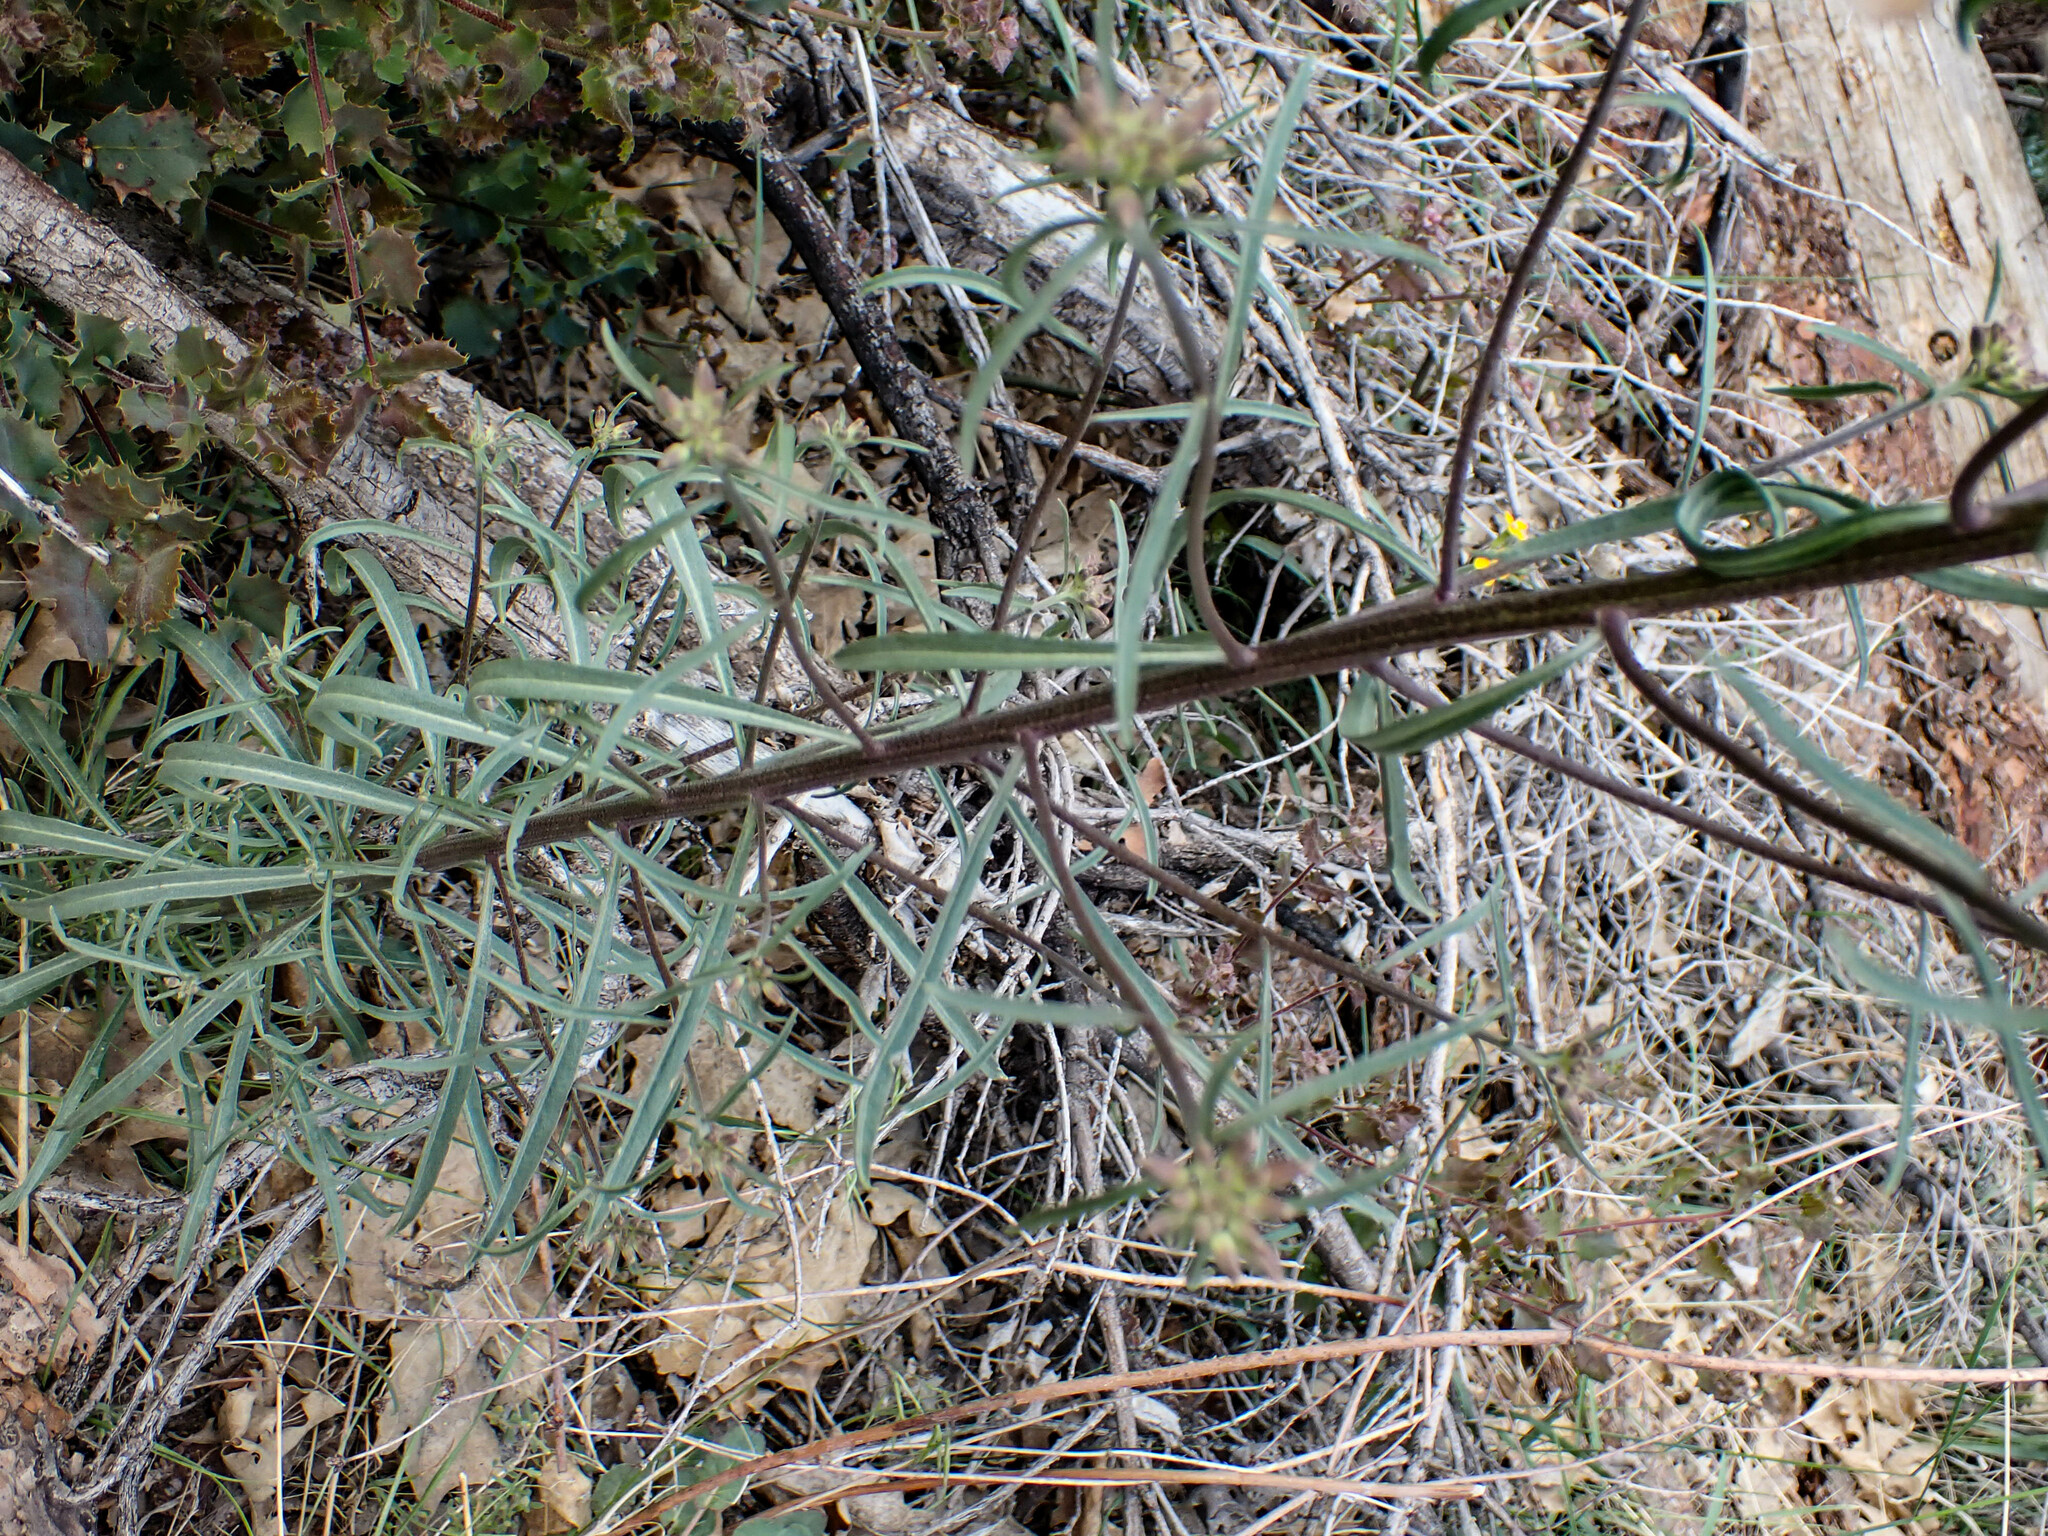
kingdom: Plantae
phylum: Tracheophyta
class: Magnoliopsida
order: Brassicales
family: Brassicaceae
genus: Erysimum
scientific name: Erysimum capitatum
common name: Western wallflower
